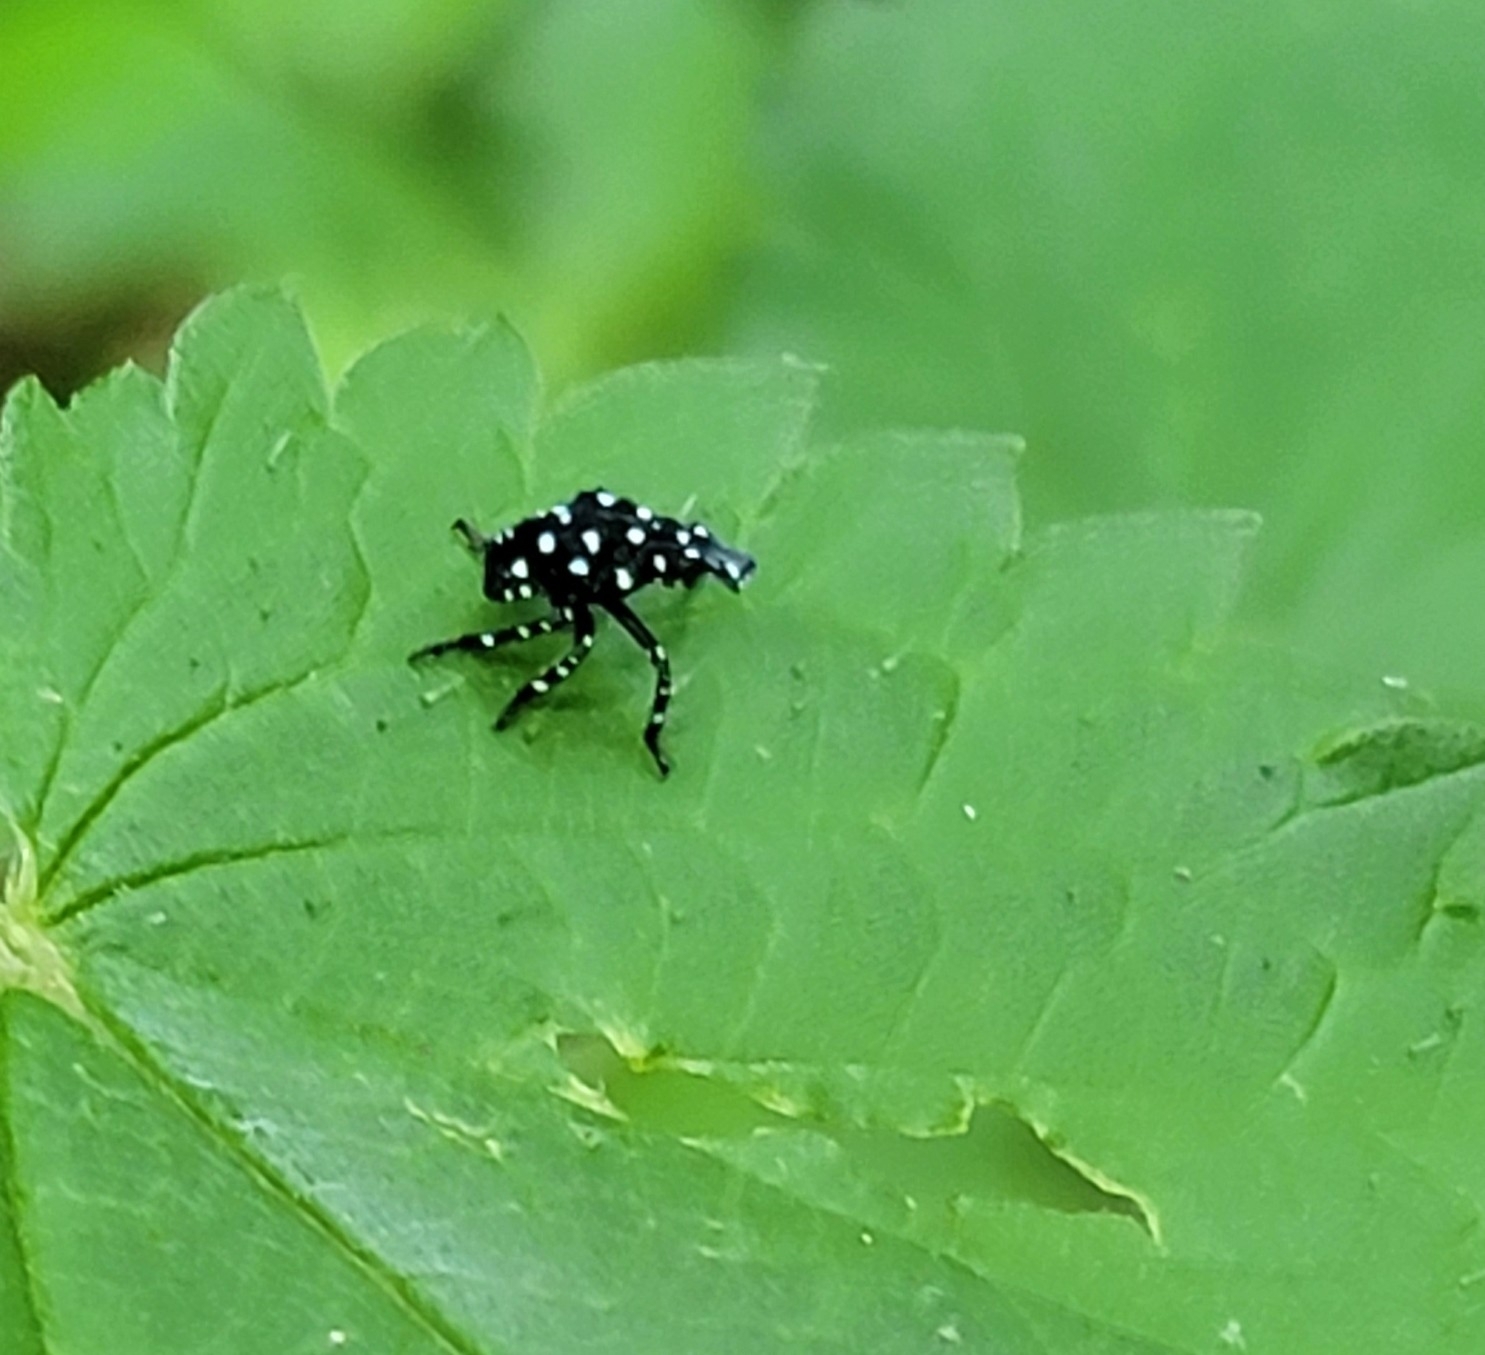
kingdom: Animalia
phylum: Arthropoda
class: Insecta
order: Hemiptera
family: Fulgoridae
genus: Lycorma
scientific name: Lycorma delicatula
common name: Spotted lanternfly
